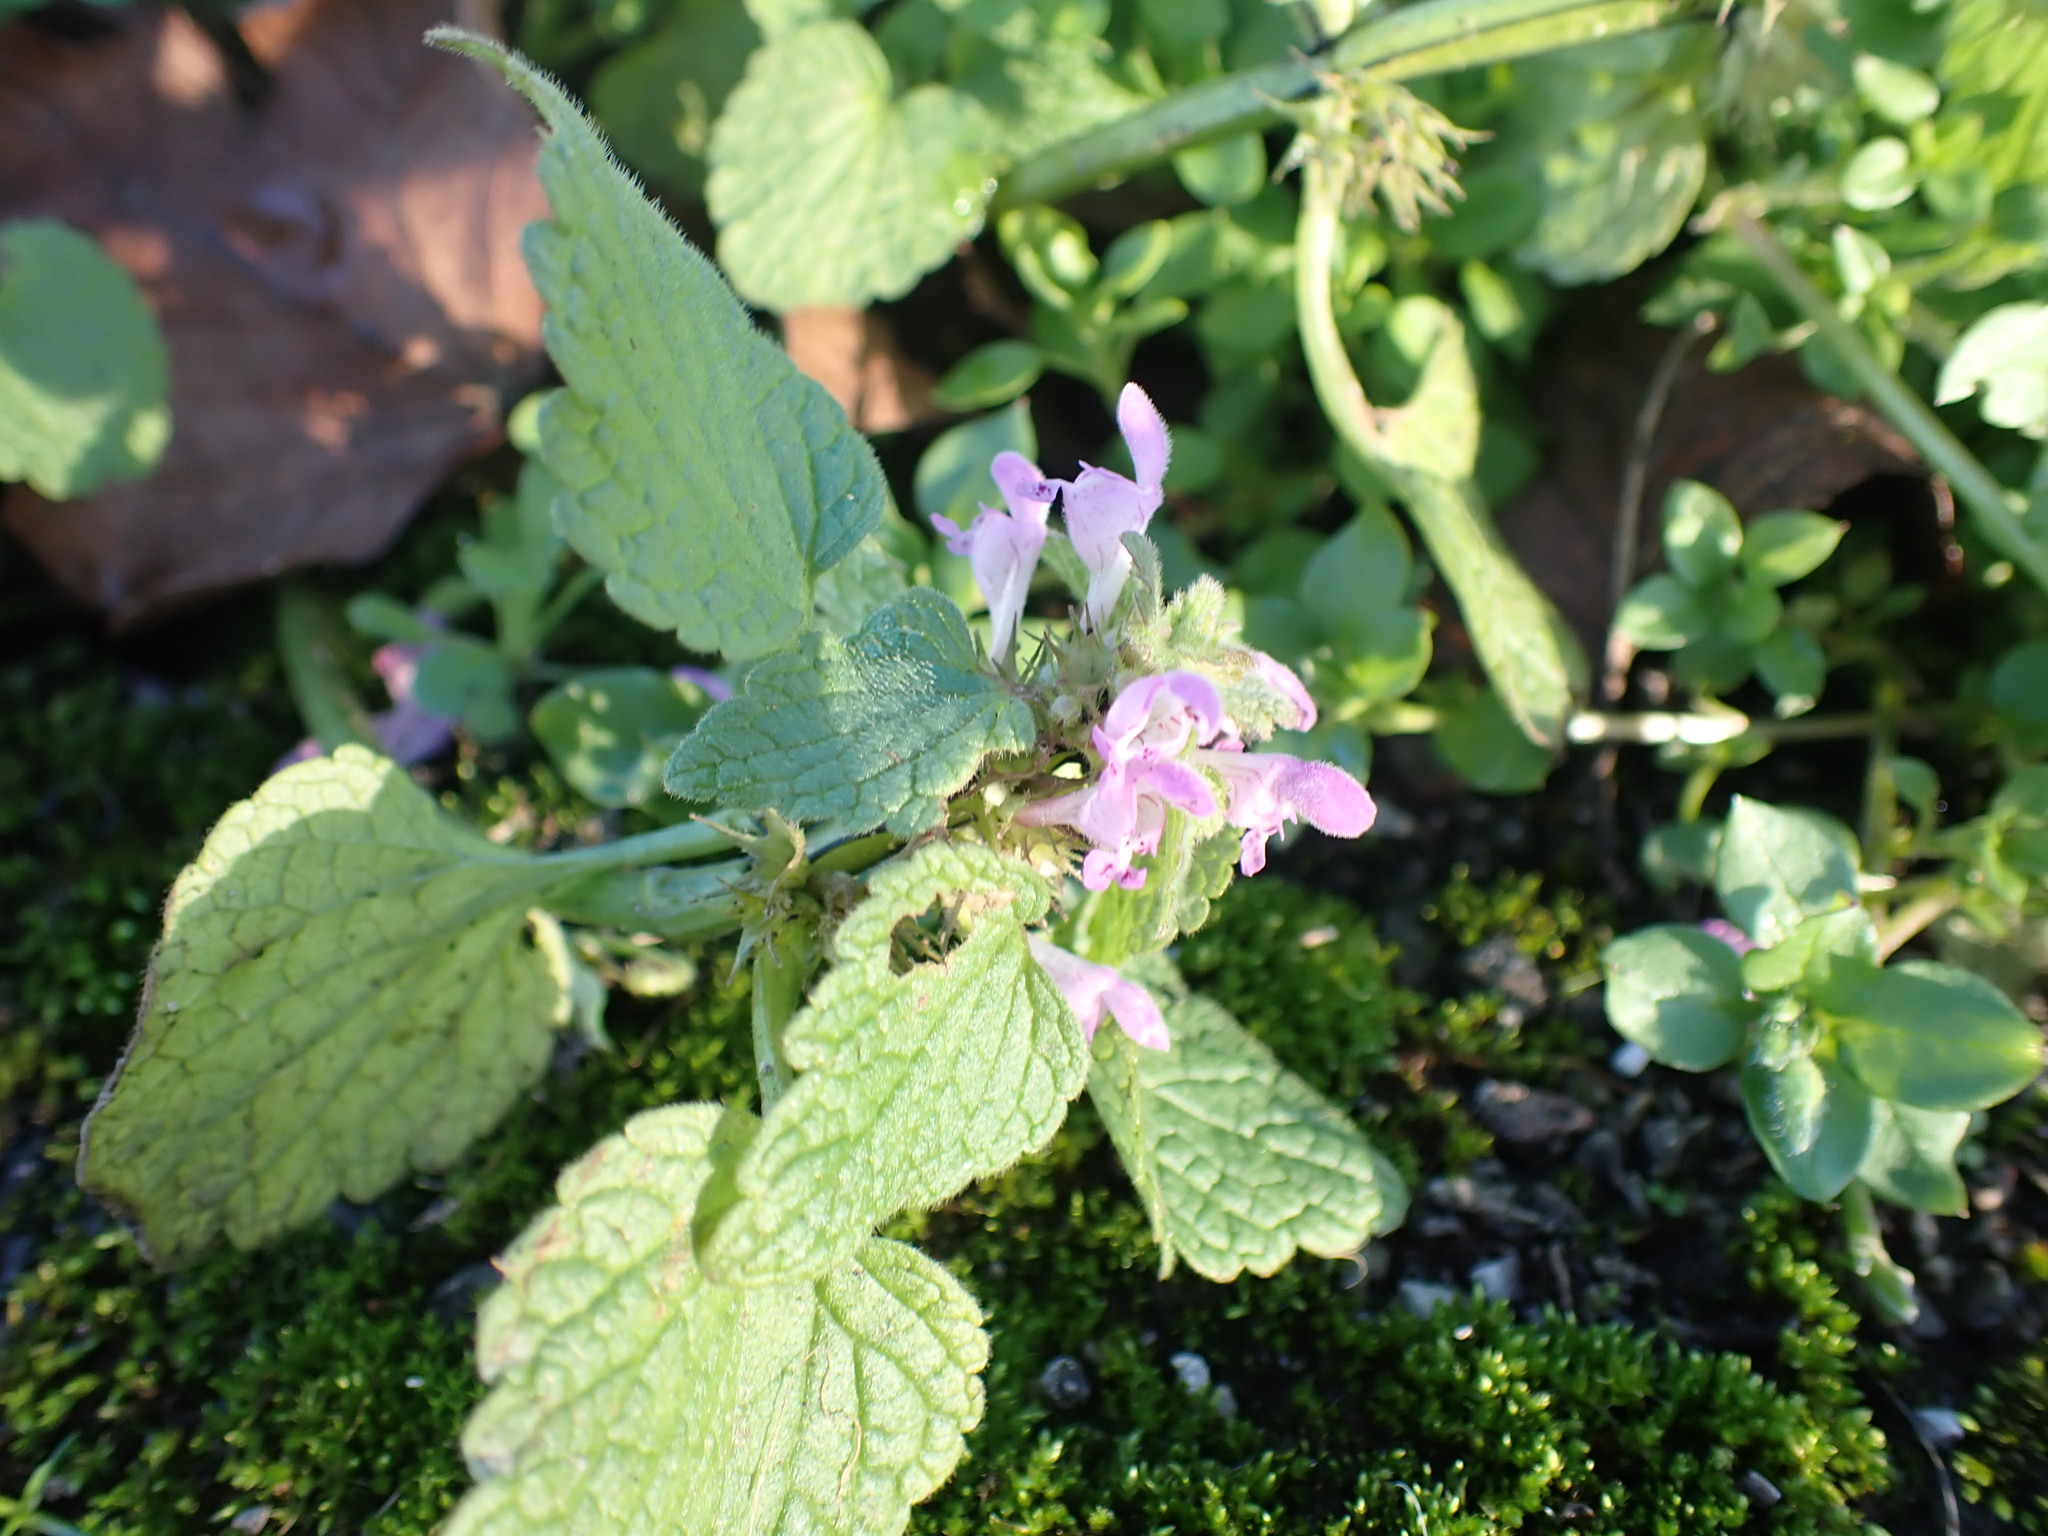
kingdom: Plantae
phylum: Tracheophyta
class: Magnoliopsida
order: Lamiales
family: Lamiaceae
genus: Lamium
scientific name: Lamium purpureum
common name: Red dead-nettle
